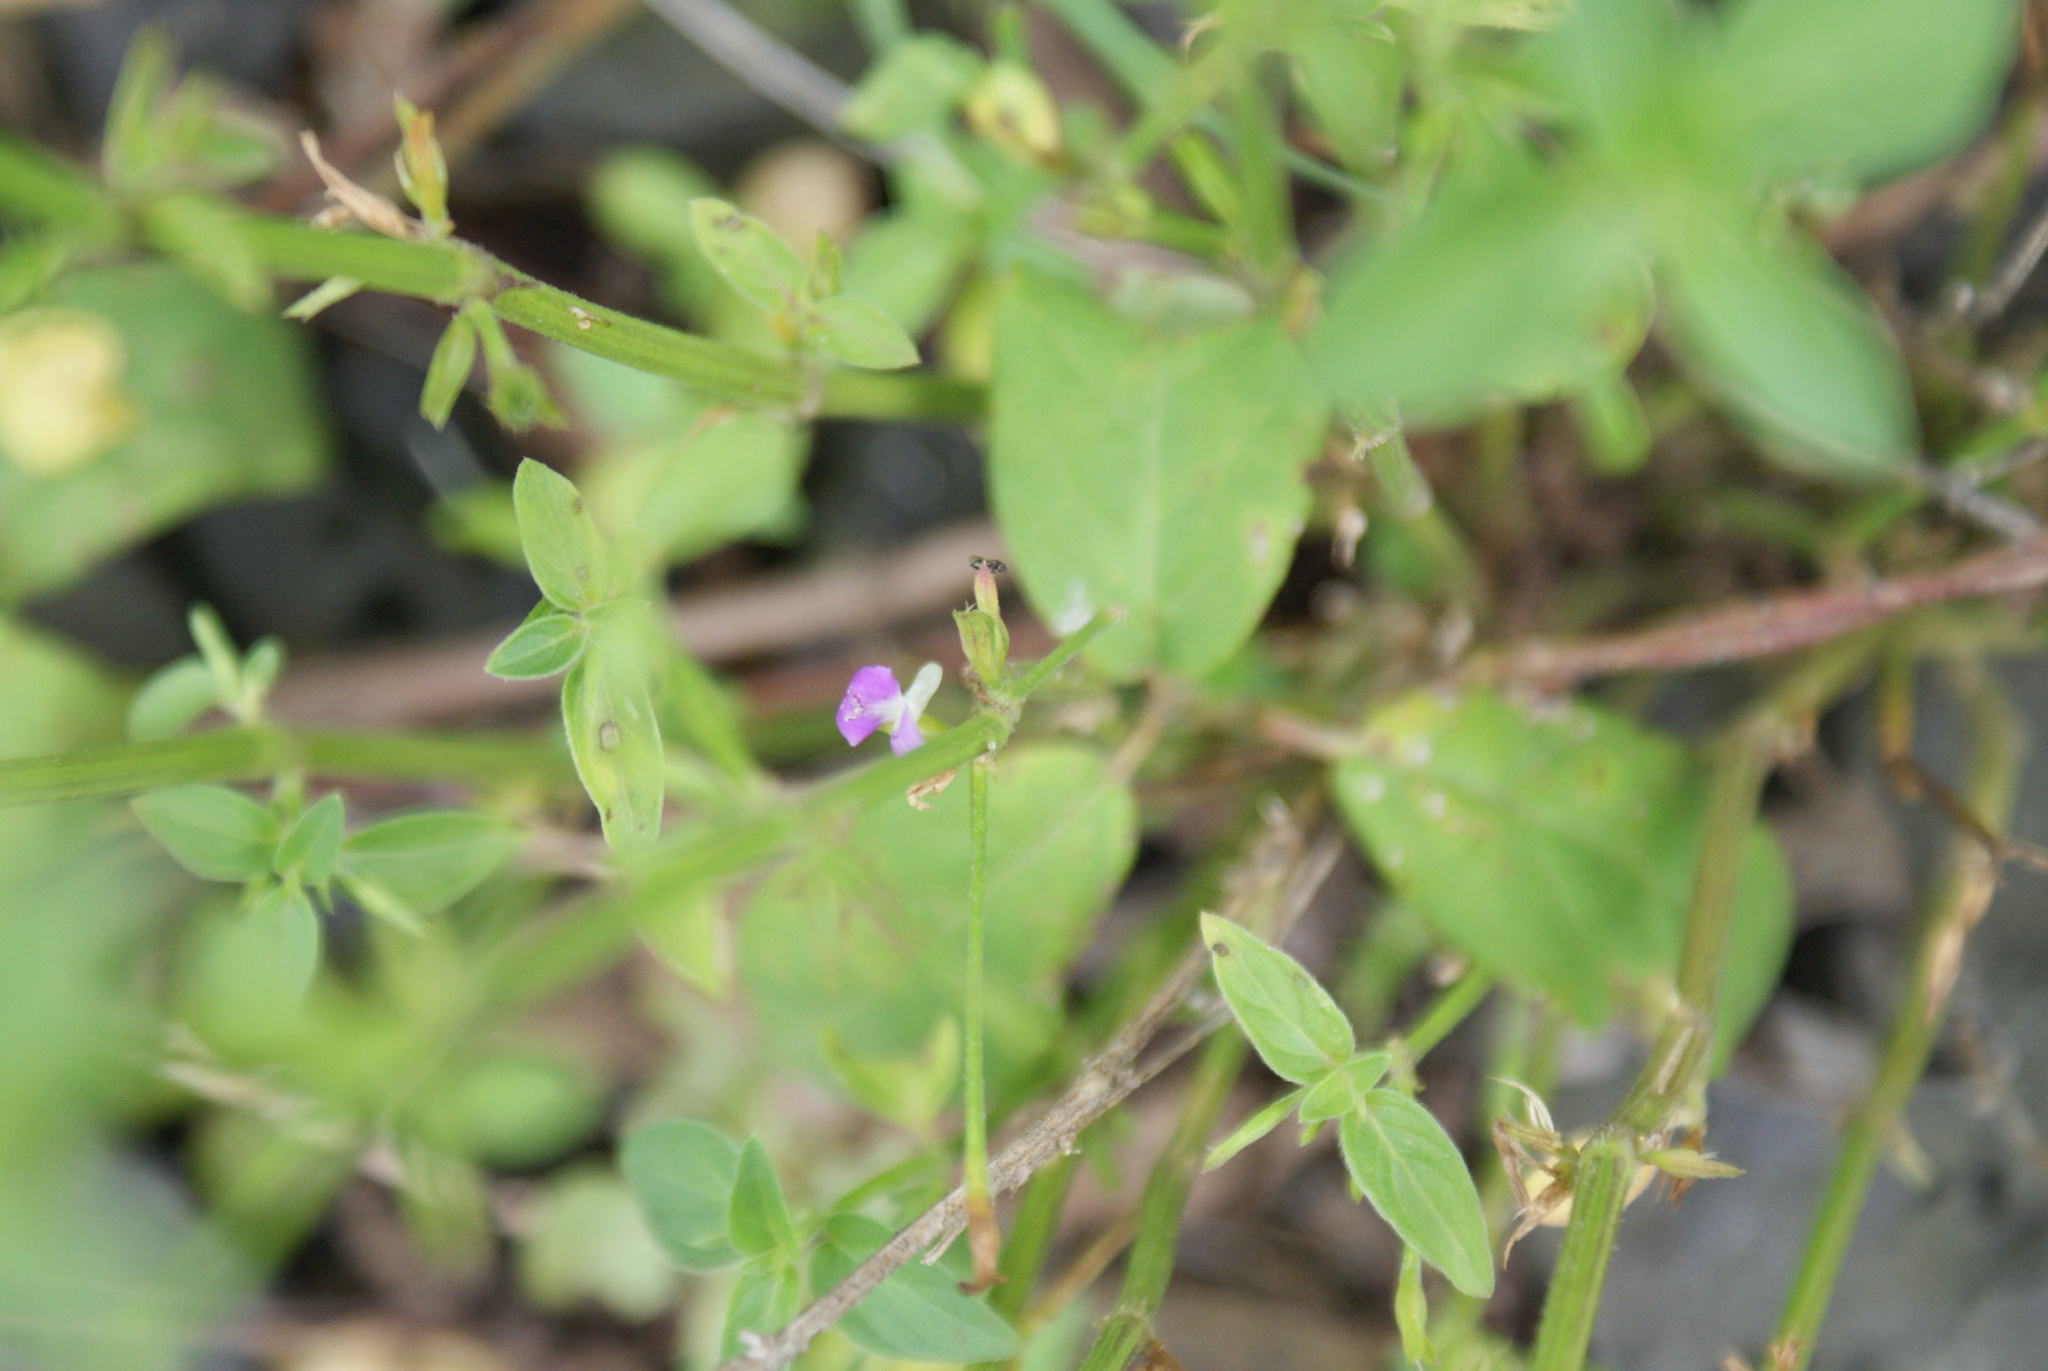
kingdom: Plantae
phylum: Tracheophyta
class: Magnoliopsida
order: Lamiales
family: Acanthaceae
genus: Dicliptera
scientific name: Dicliptera peduncularis
